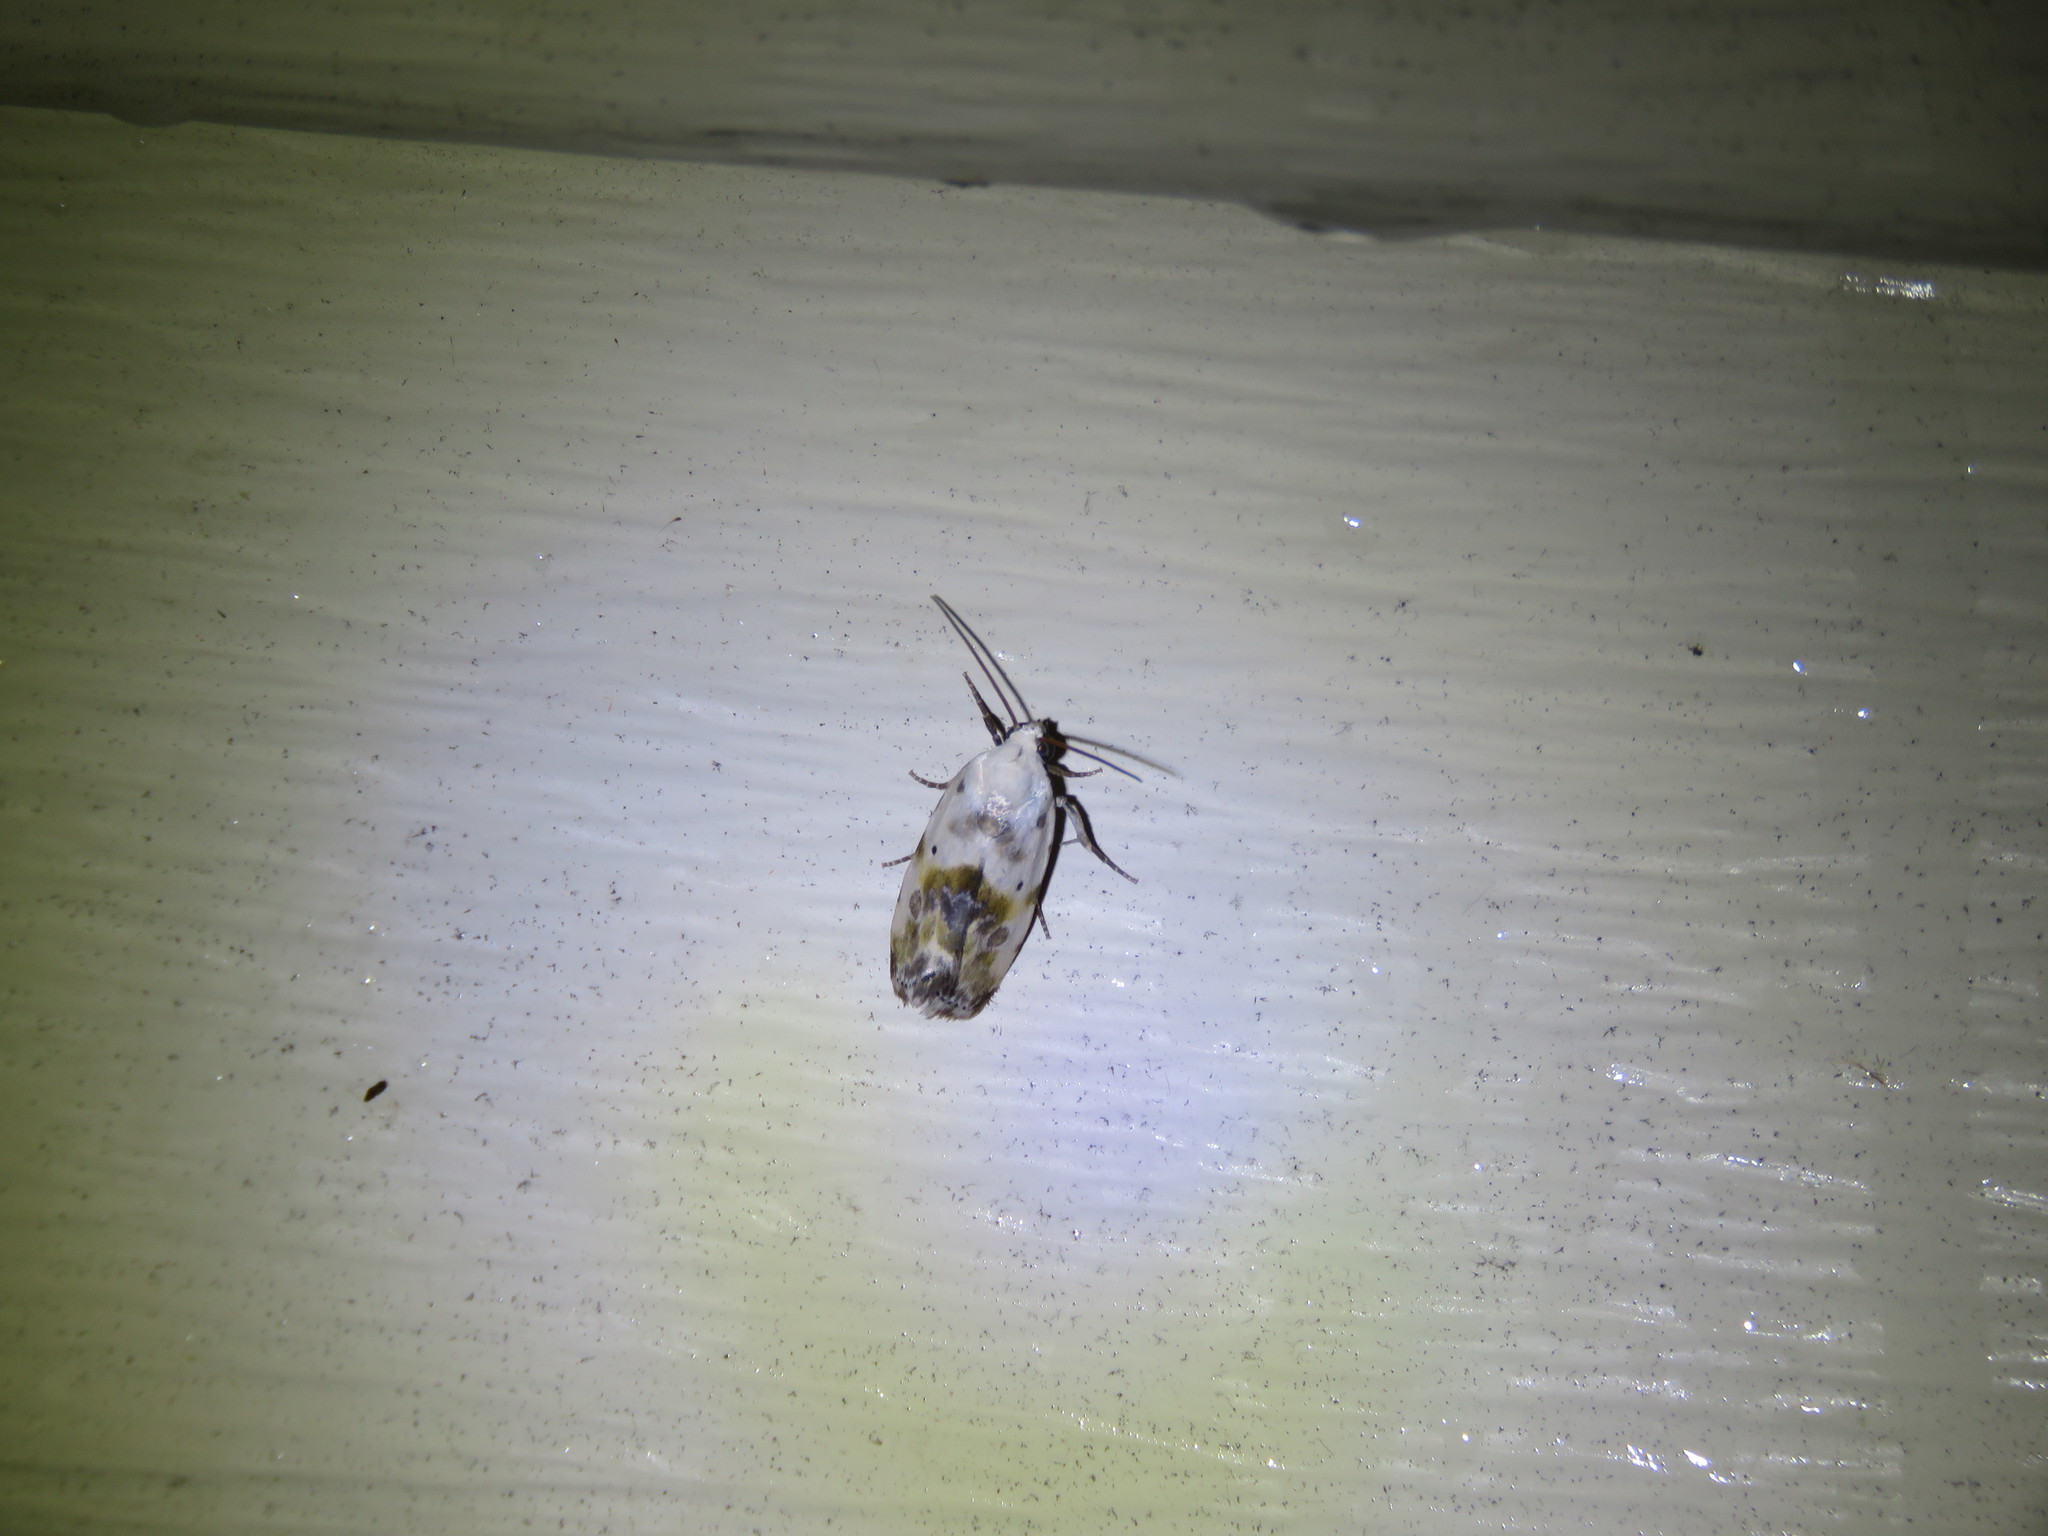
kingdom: Animalia
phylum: Arthropoda
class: Insecta
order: Lepidoptera
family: Noctuidae
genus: Acontia
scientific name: Acontia candefacta
